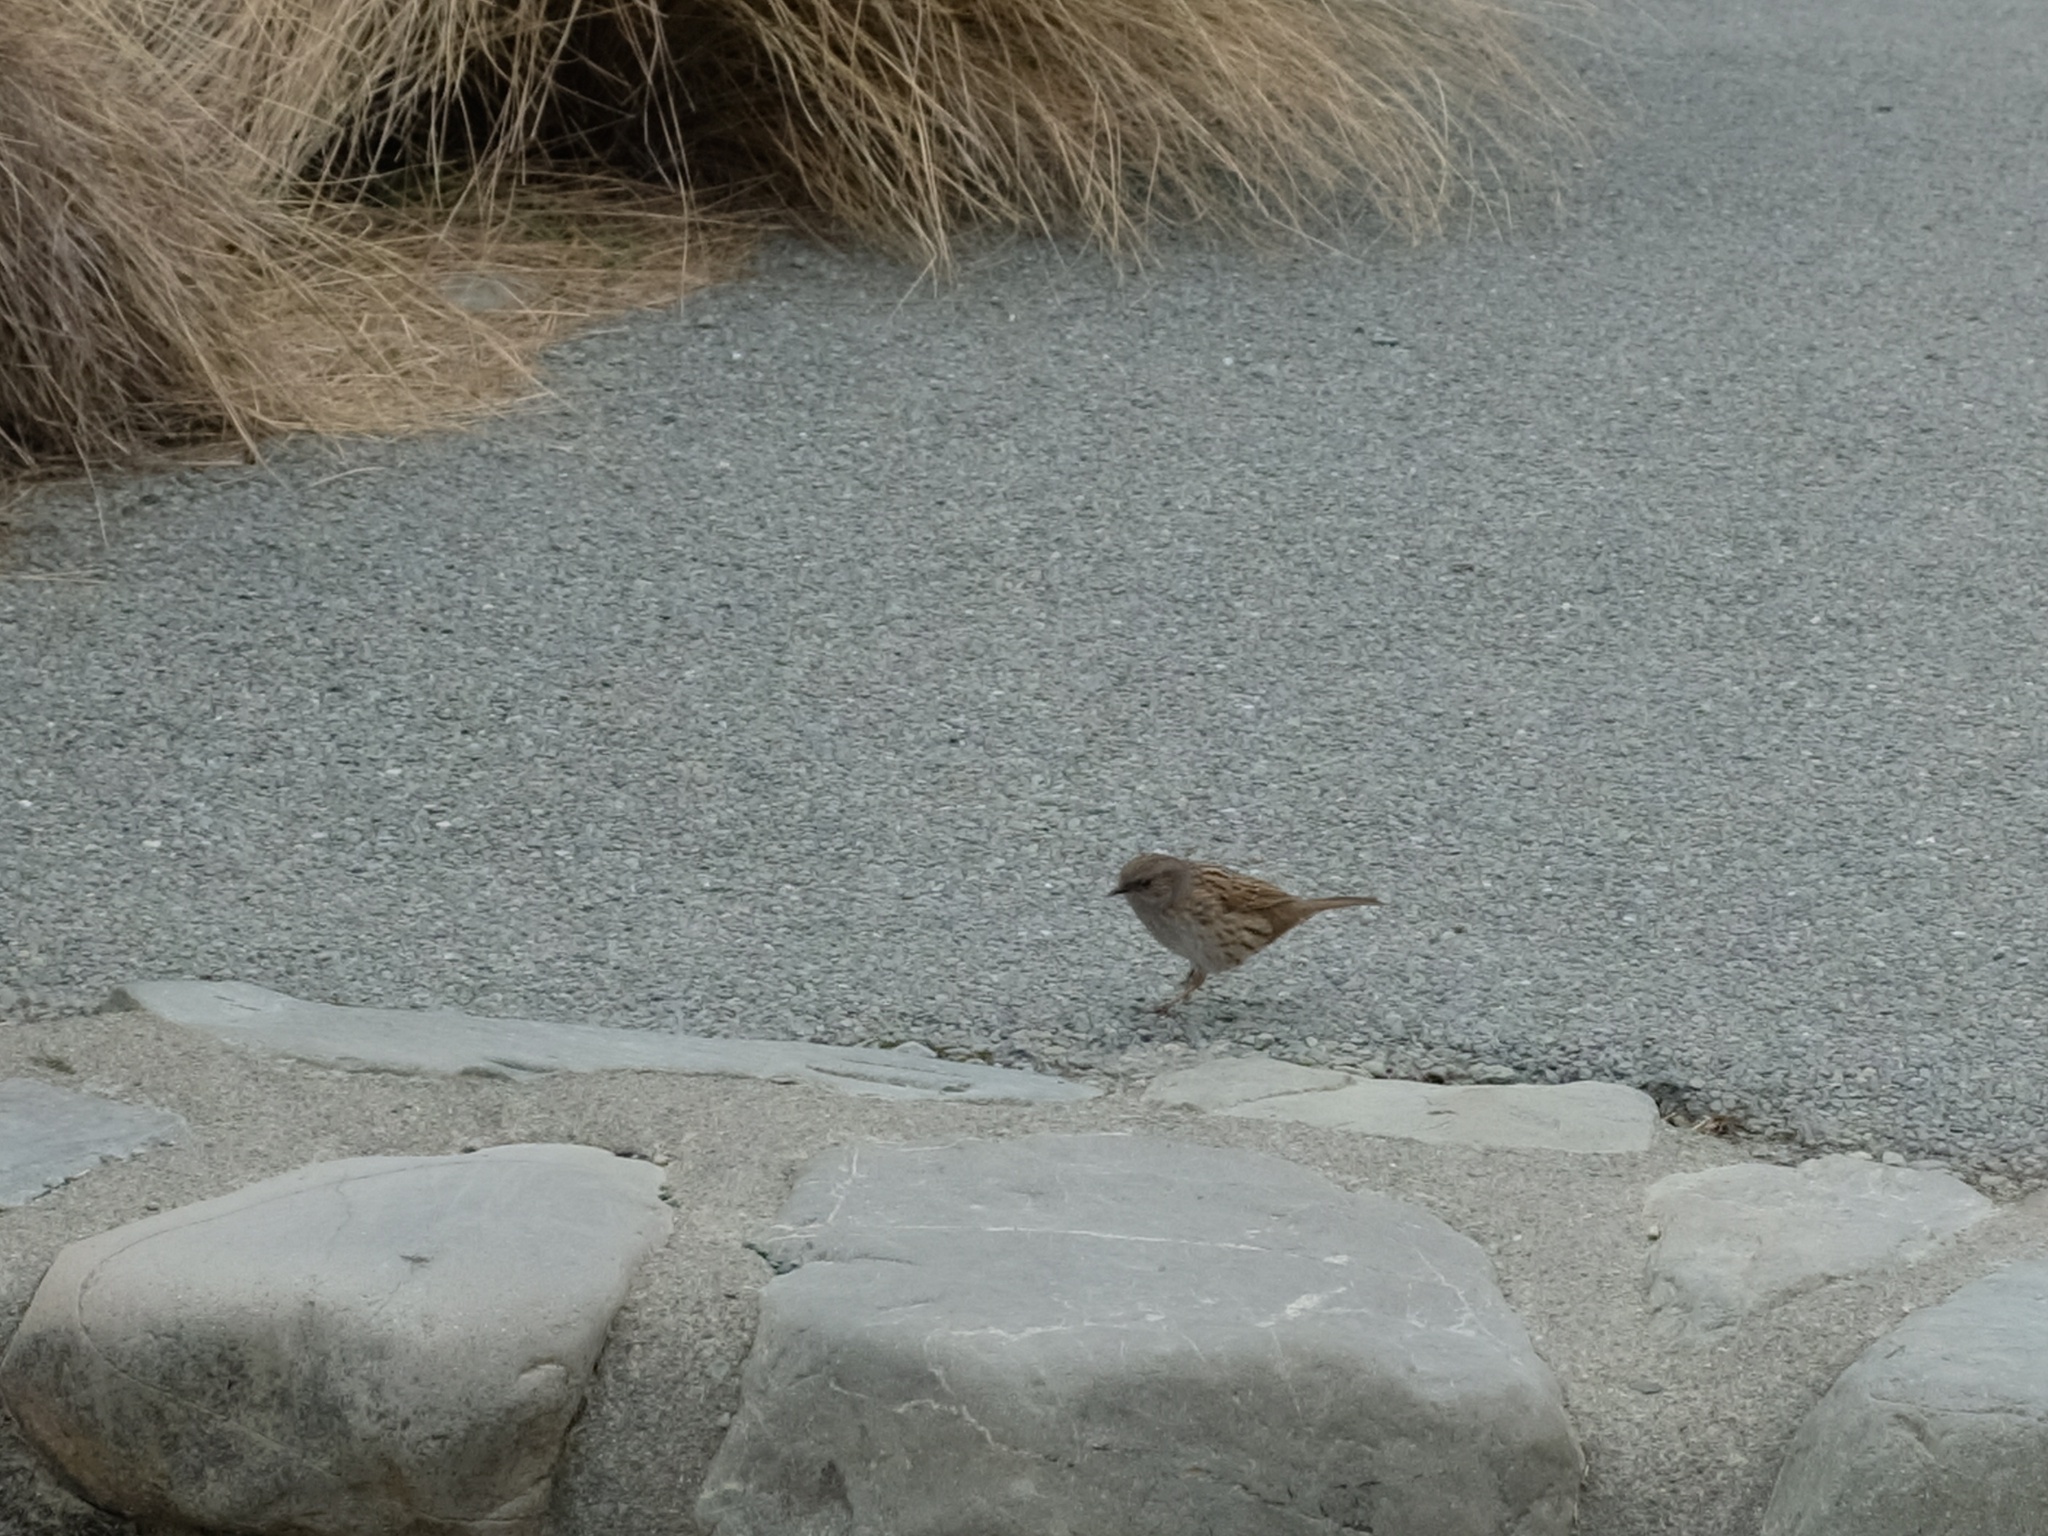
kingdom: Animalia
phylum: Chordata
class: Aves
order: Passeriformes
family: Prunellidae
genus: Prunella
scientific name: Prunella modularis
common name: Dunnock
